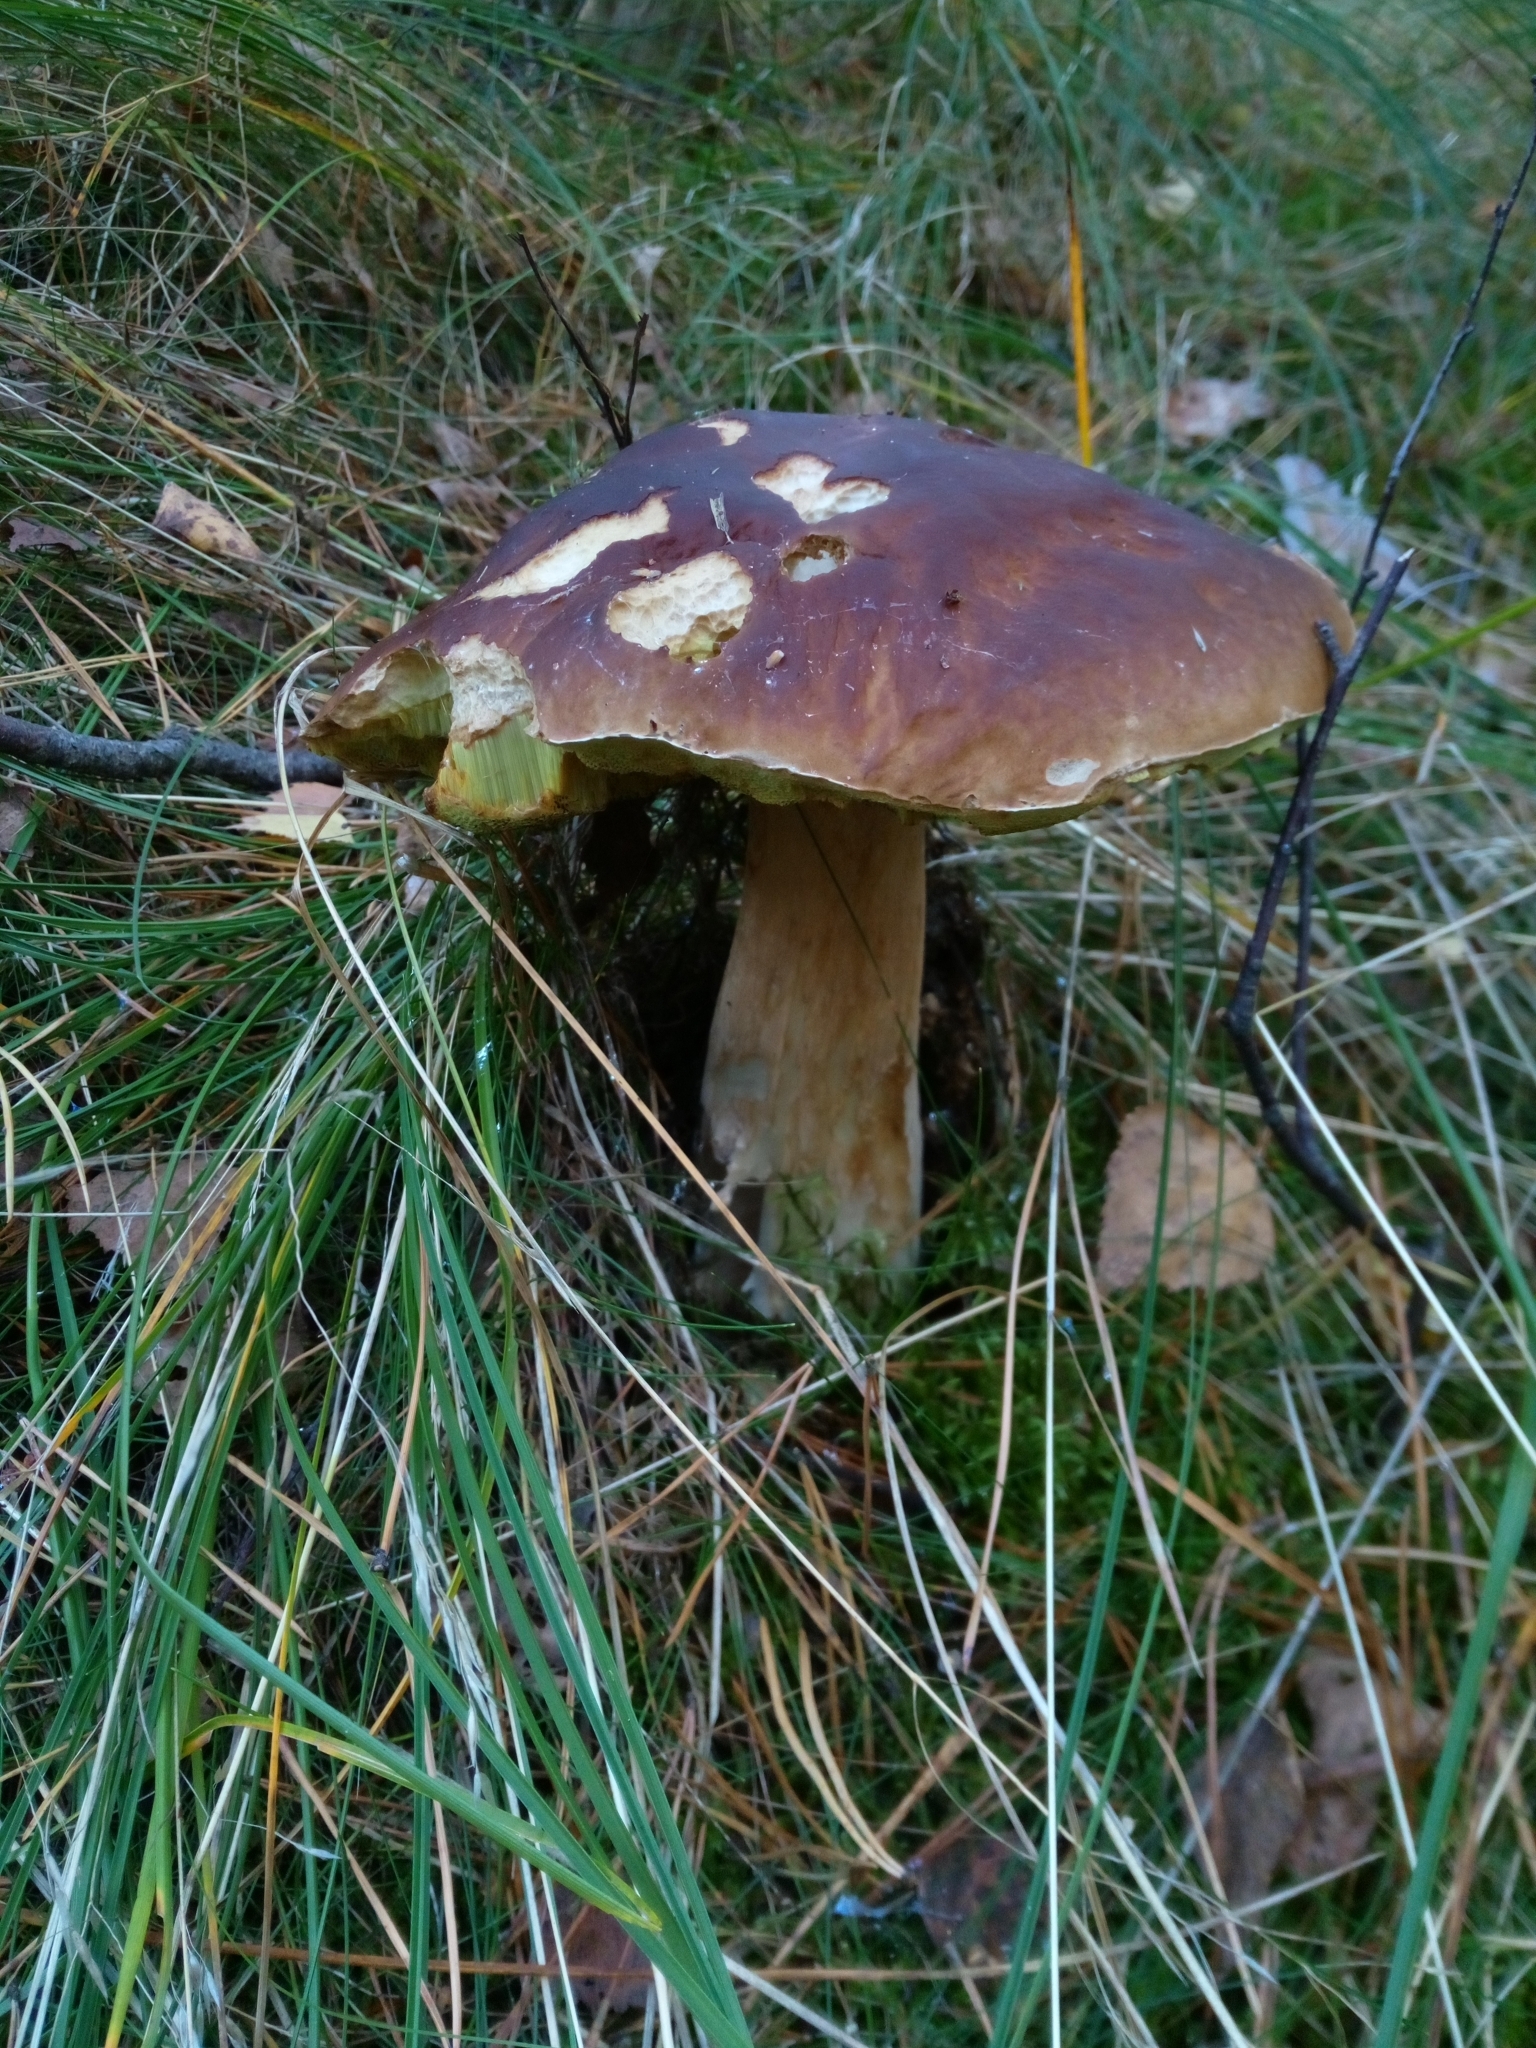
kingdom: Fungi
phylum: Basidiomycota
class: Agaricomycetes
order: Boletales
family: Boletaceae
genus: Boletus
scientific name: Boletus edulis
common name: Cep
